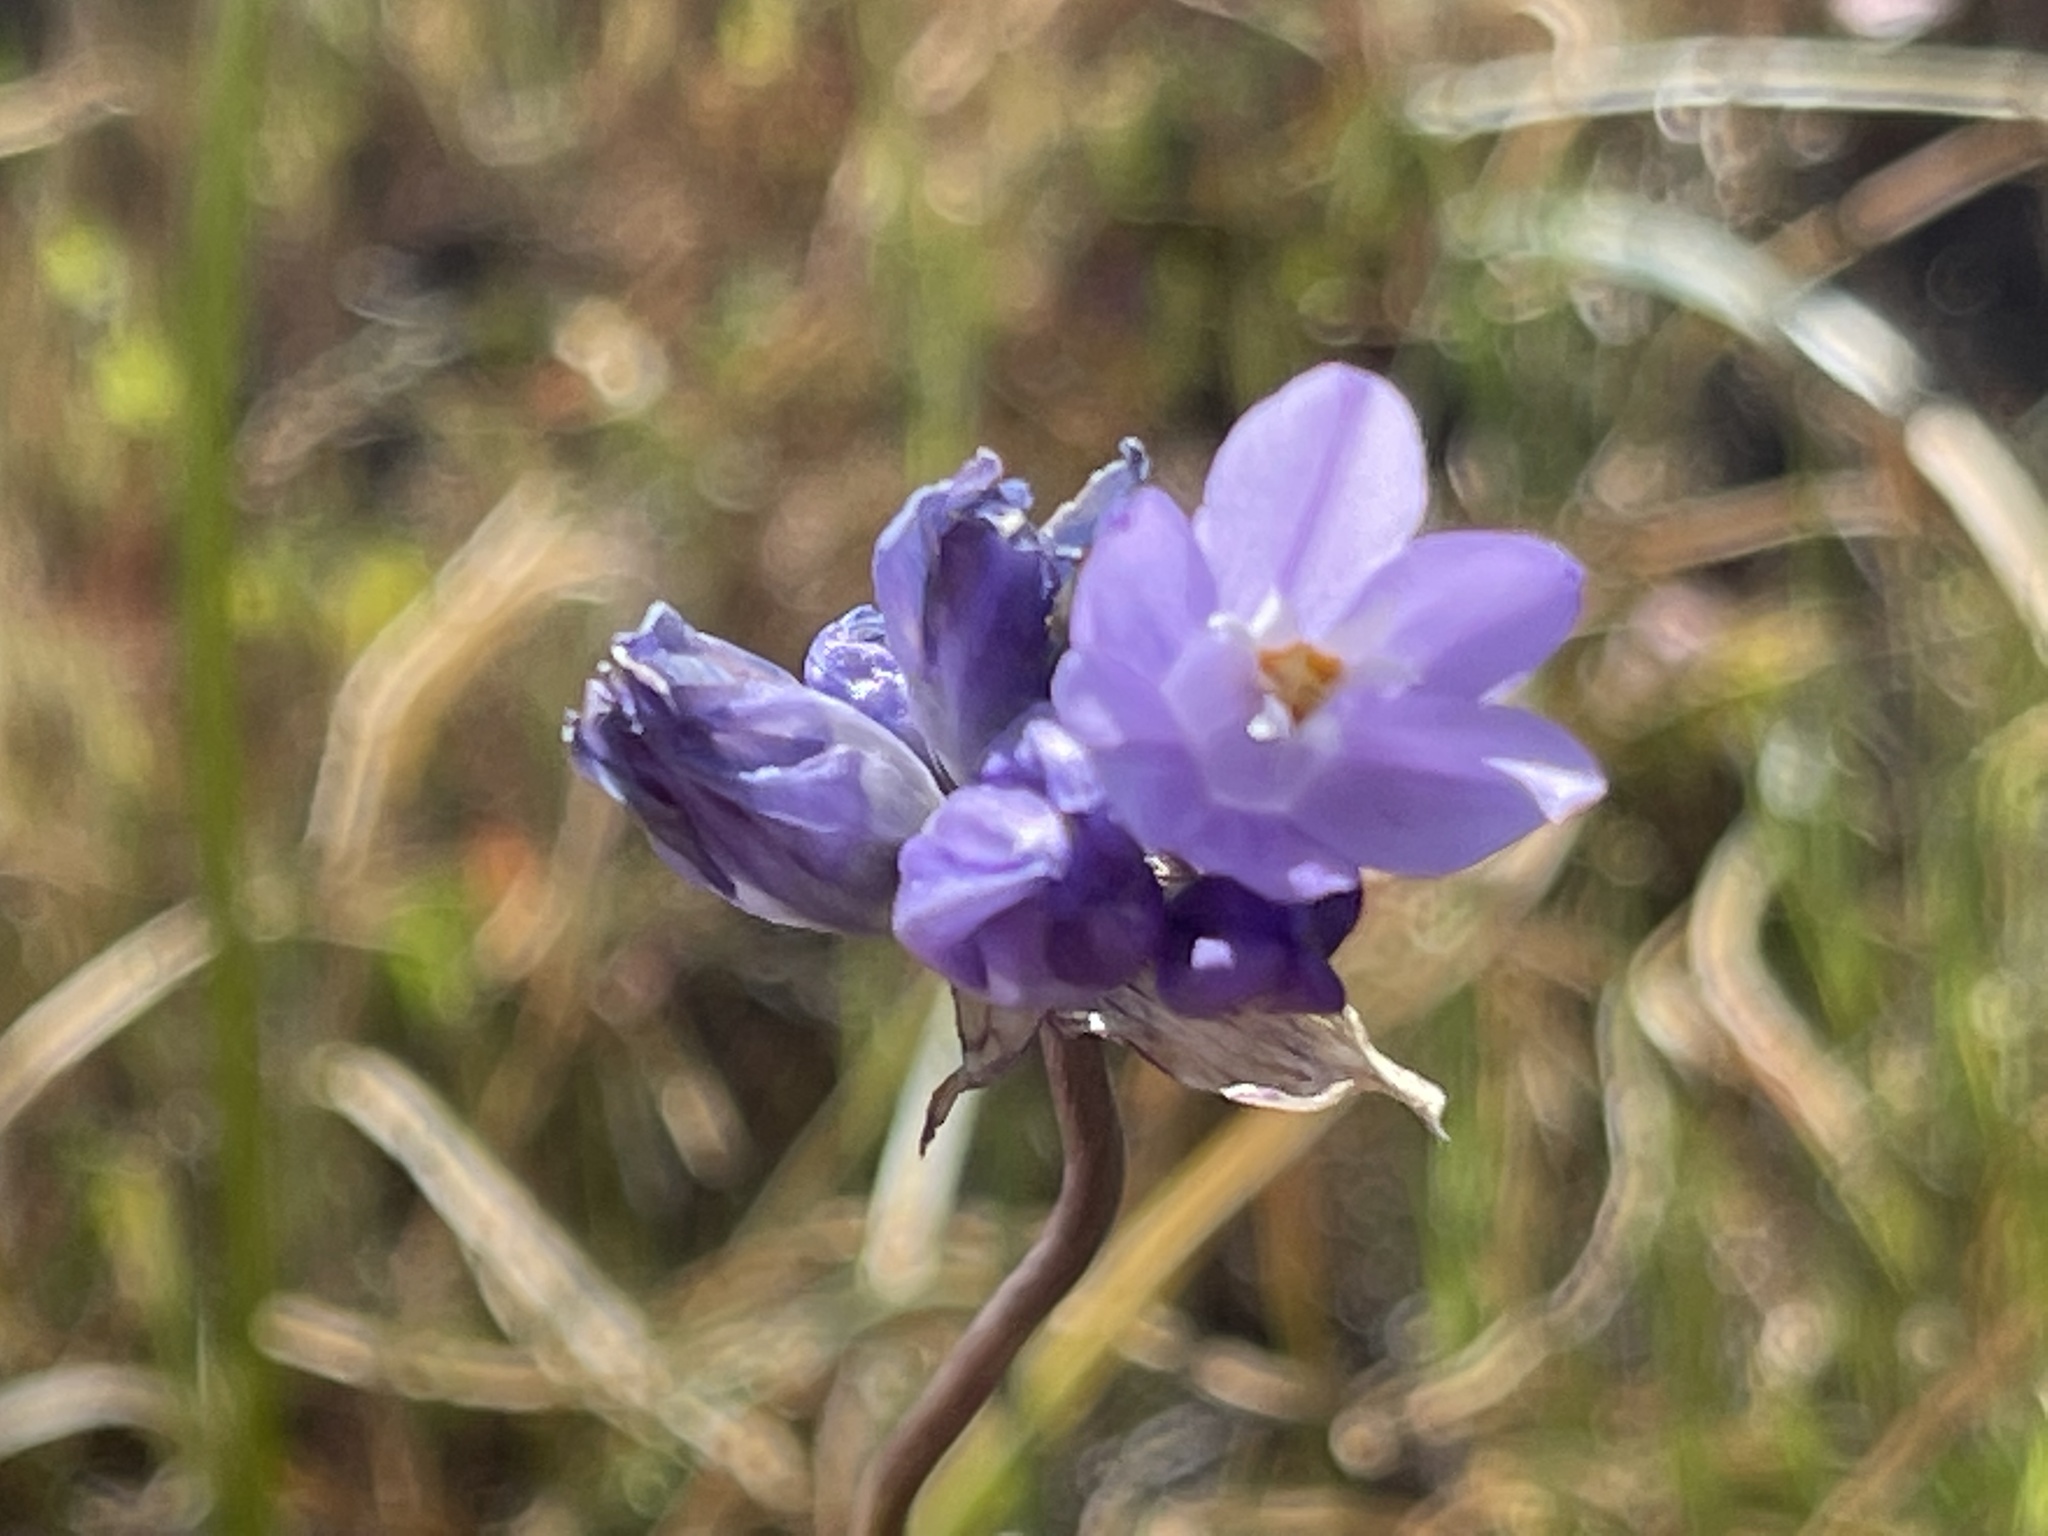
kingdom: Plantae
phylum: Tracheophyta
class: Liliopsida
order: Asparagales
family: Asparagaceae
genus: Dipterostemon
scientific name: Dipterostemon capitatus
